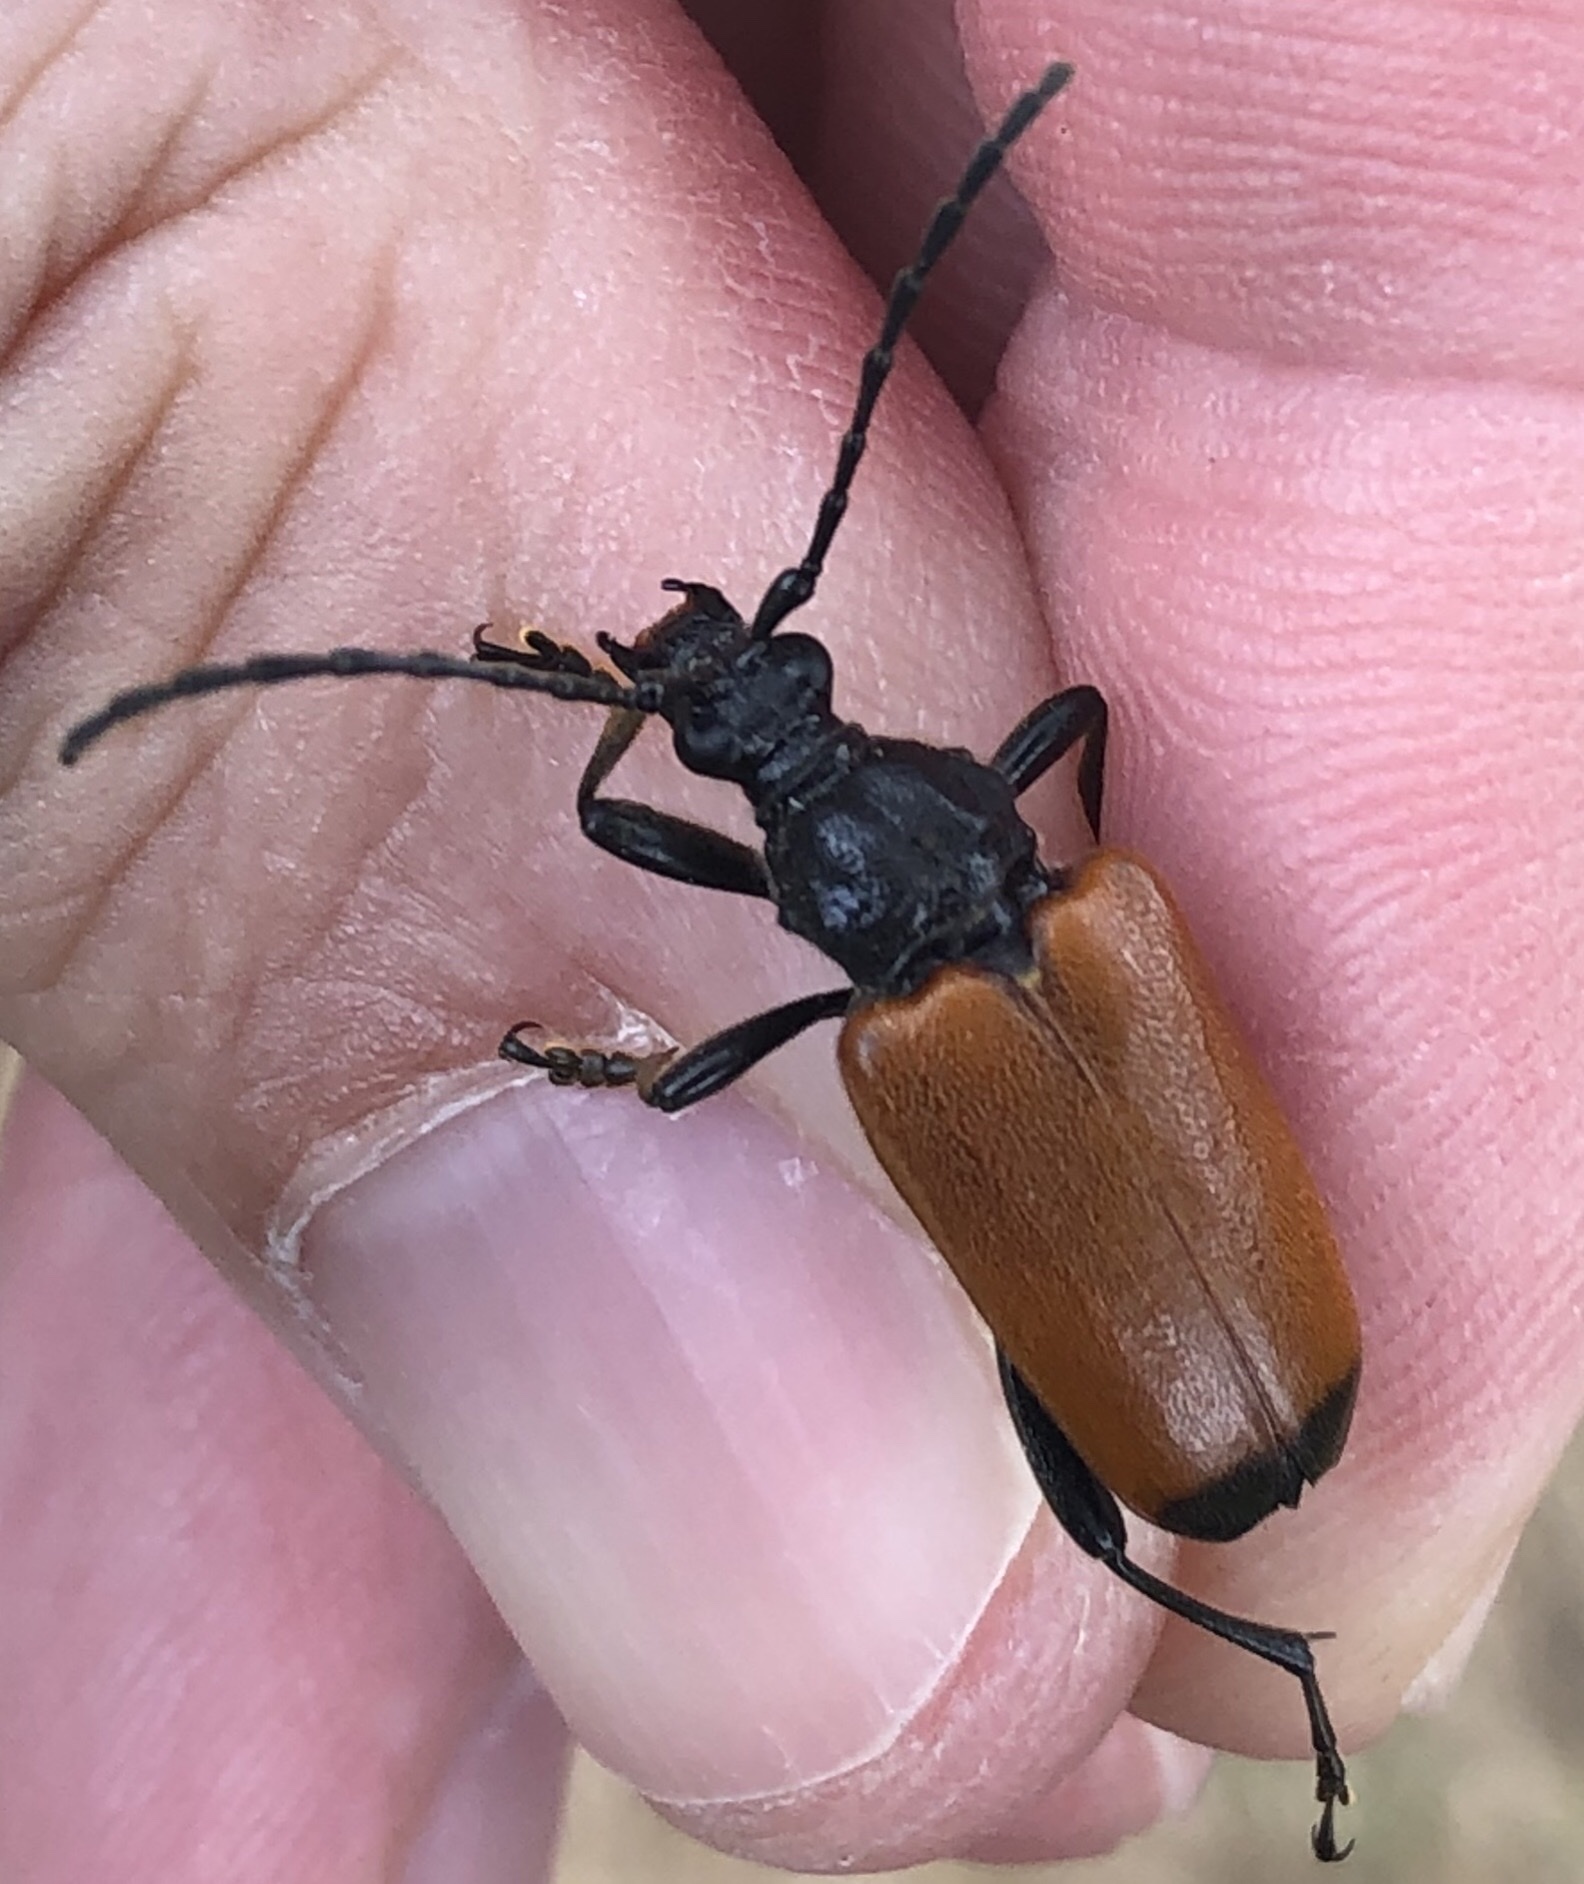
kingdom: Animalia
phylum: Arthropoda
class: Insecta
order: Coleoptera
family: Cerambycidae
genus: Trigonarthris
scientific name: Trigonarthris atrata
